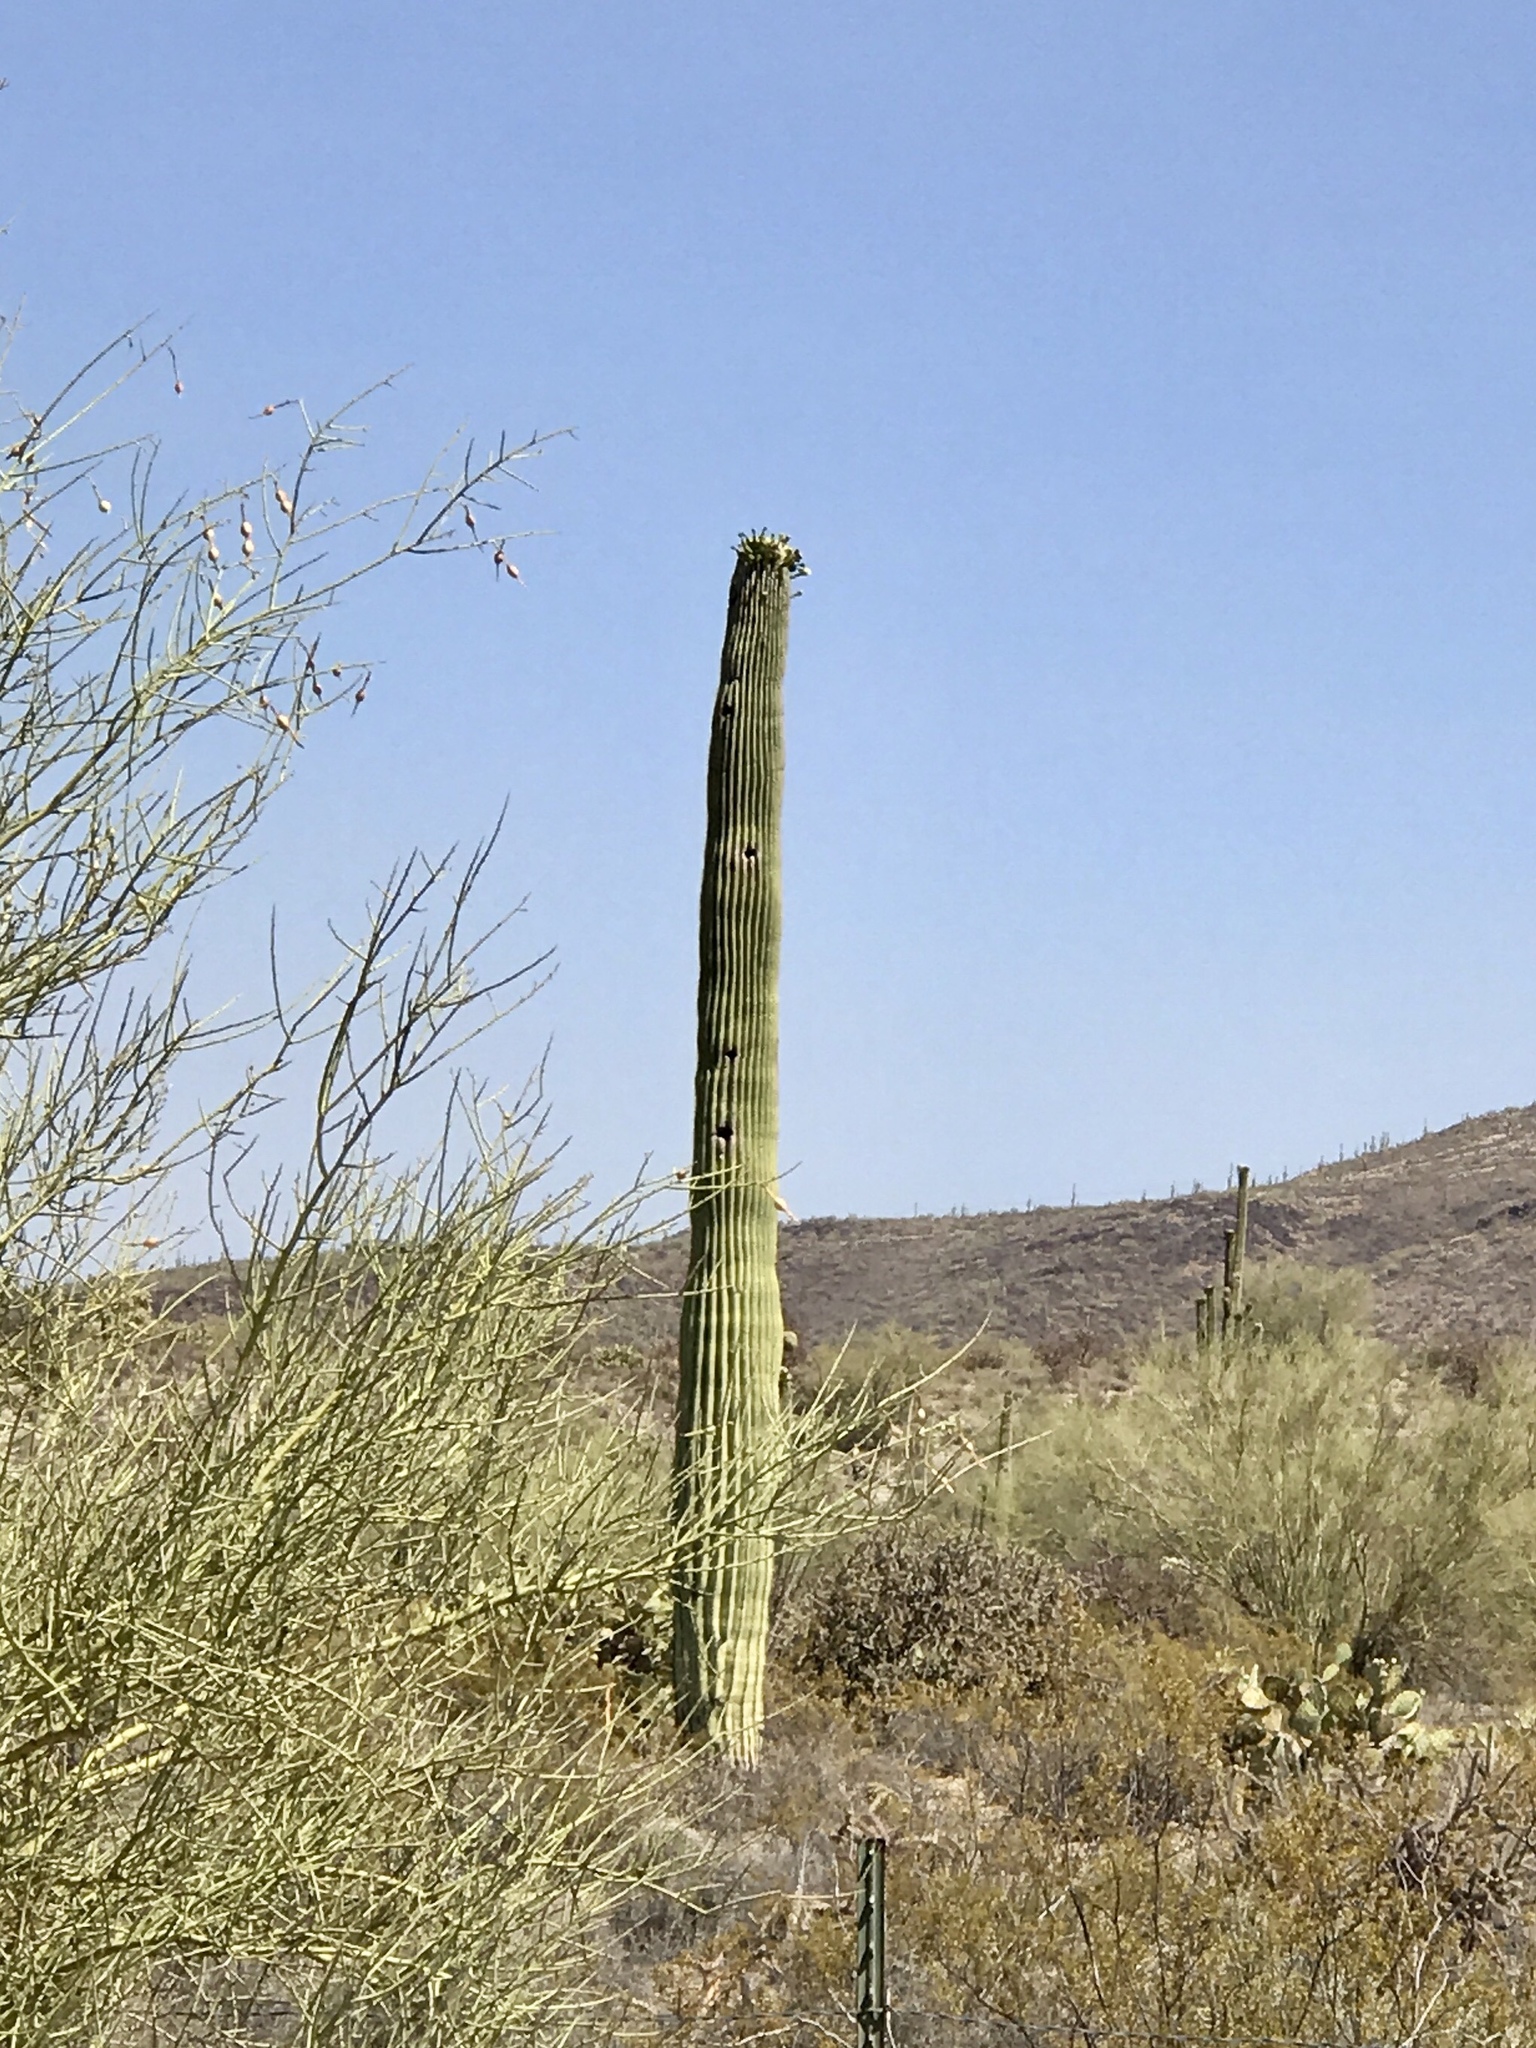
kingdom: Plantae
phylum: Tracheophyta
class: Magnoliopsida
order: Caryophyllales
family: Cactaceae
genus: Carnegiea
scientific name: Carnegiea gigantea
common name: Saguaro
